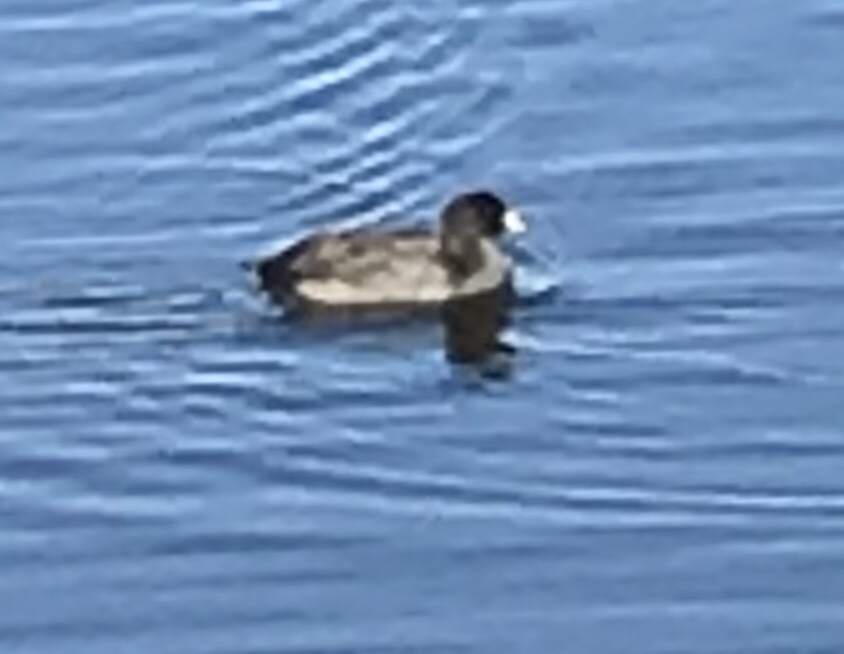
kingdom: Animalia
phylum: Chordata
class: Aves
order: Gruiformes
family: Rallidae
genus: Fulica
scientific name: Fulica americana
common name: American coot
